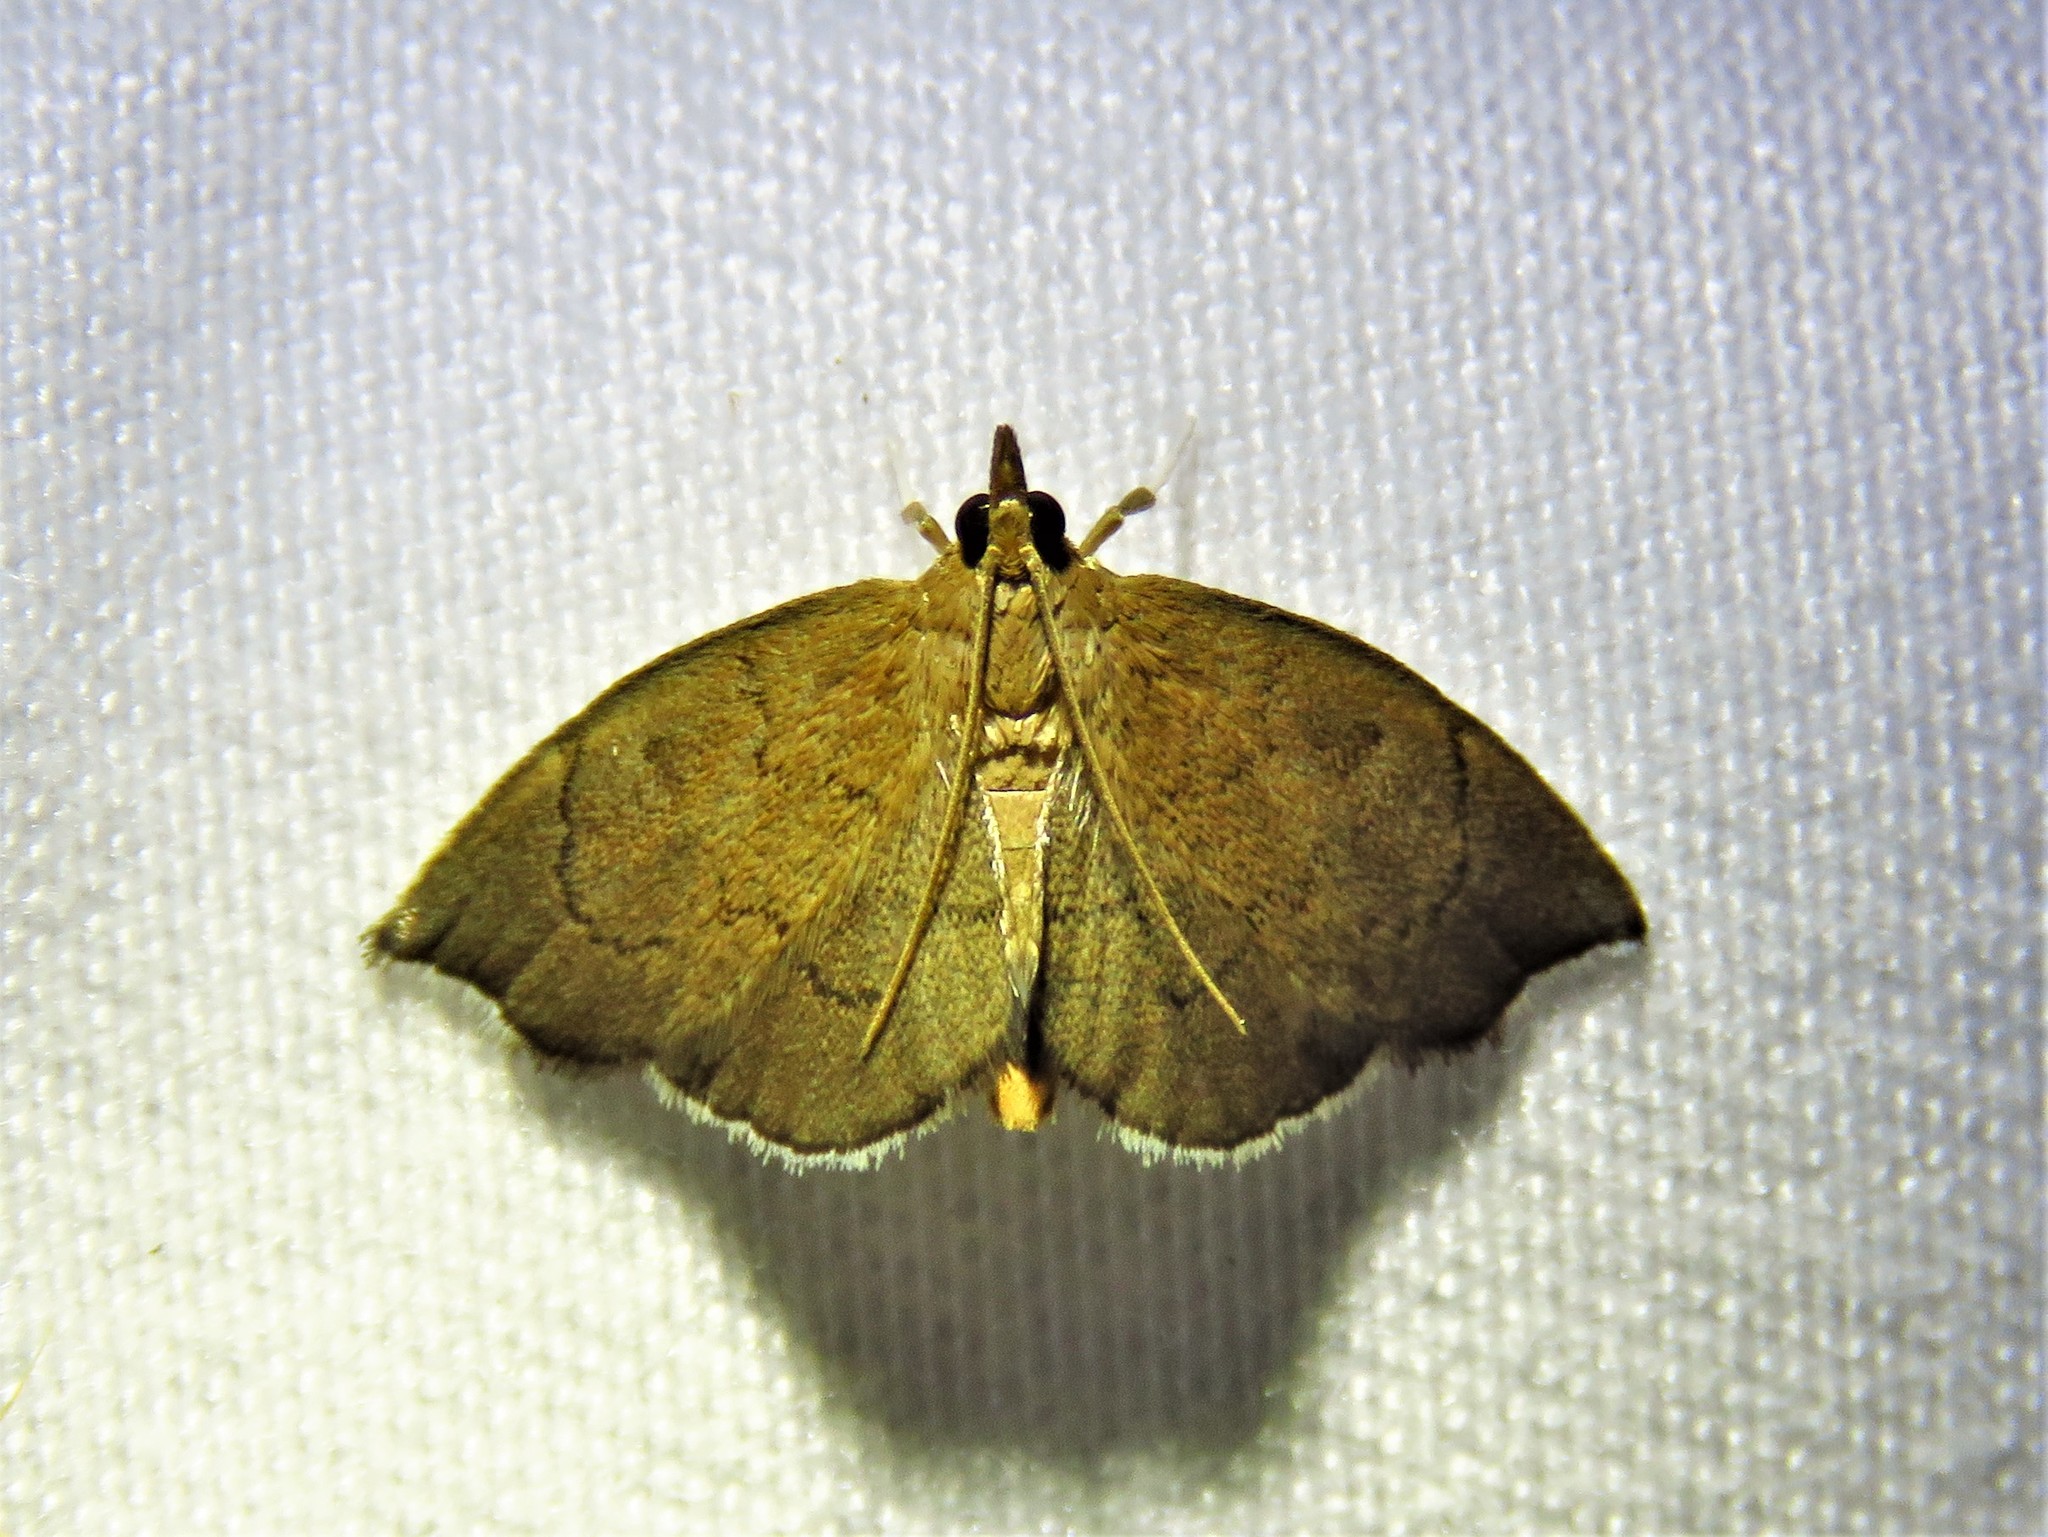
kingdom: Animalia
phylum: Arthropoda
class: Insecta
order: Lepidoptera
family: Crambidae
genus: Perispasta
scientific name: Perispasta caeculalis
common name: Titian peale's moth
